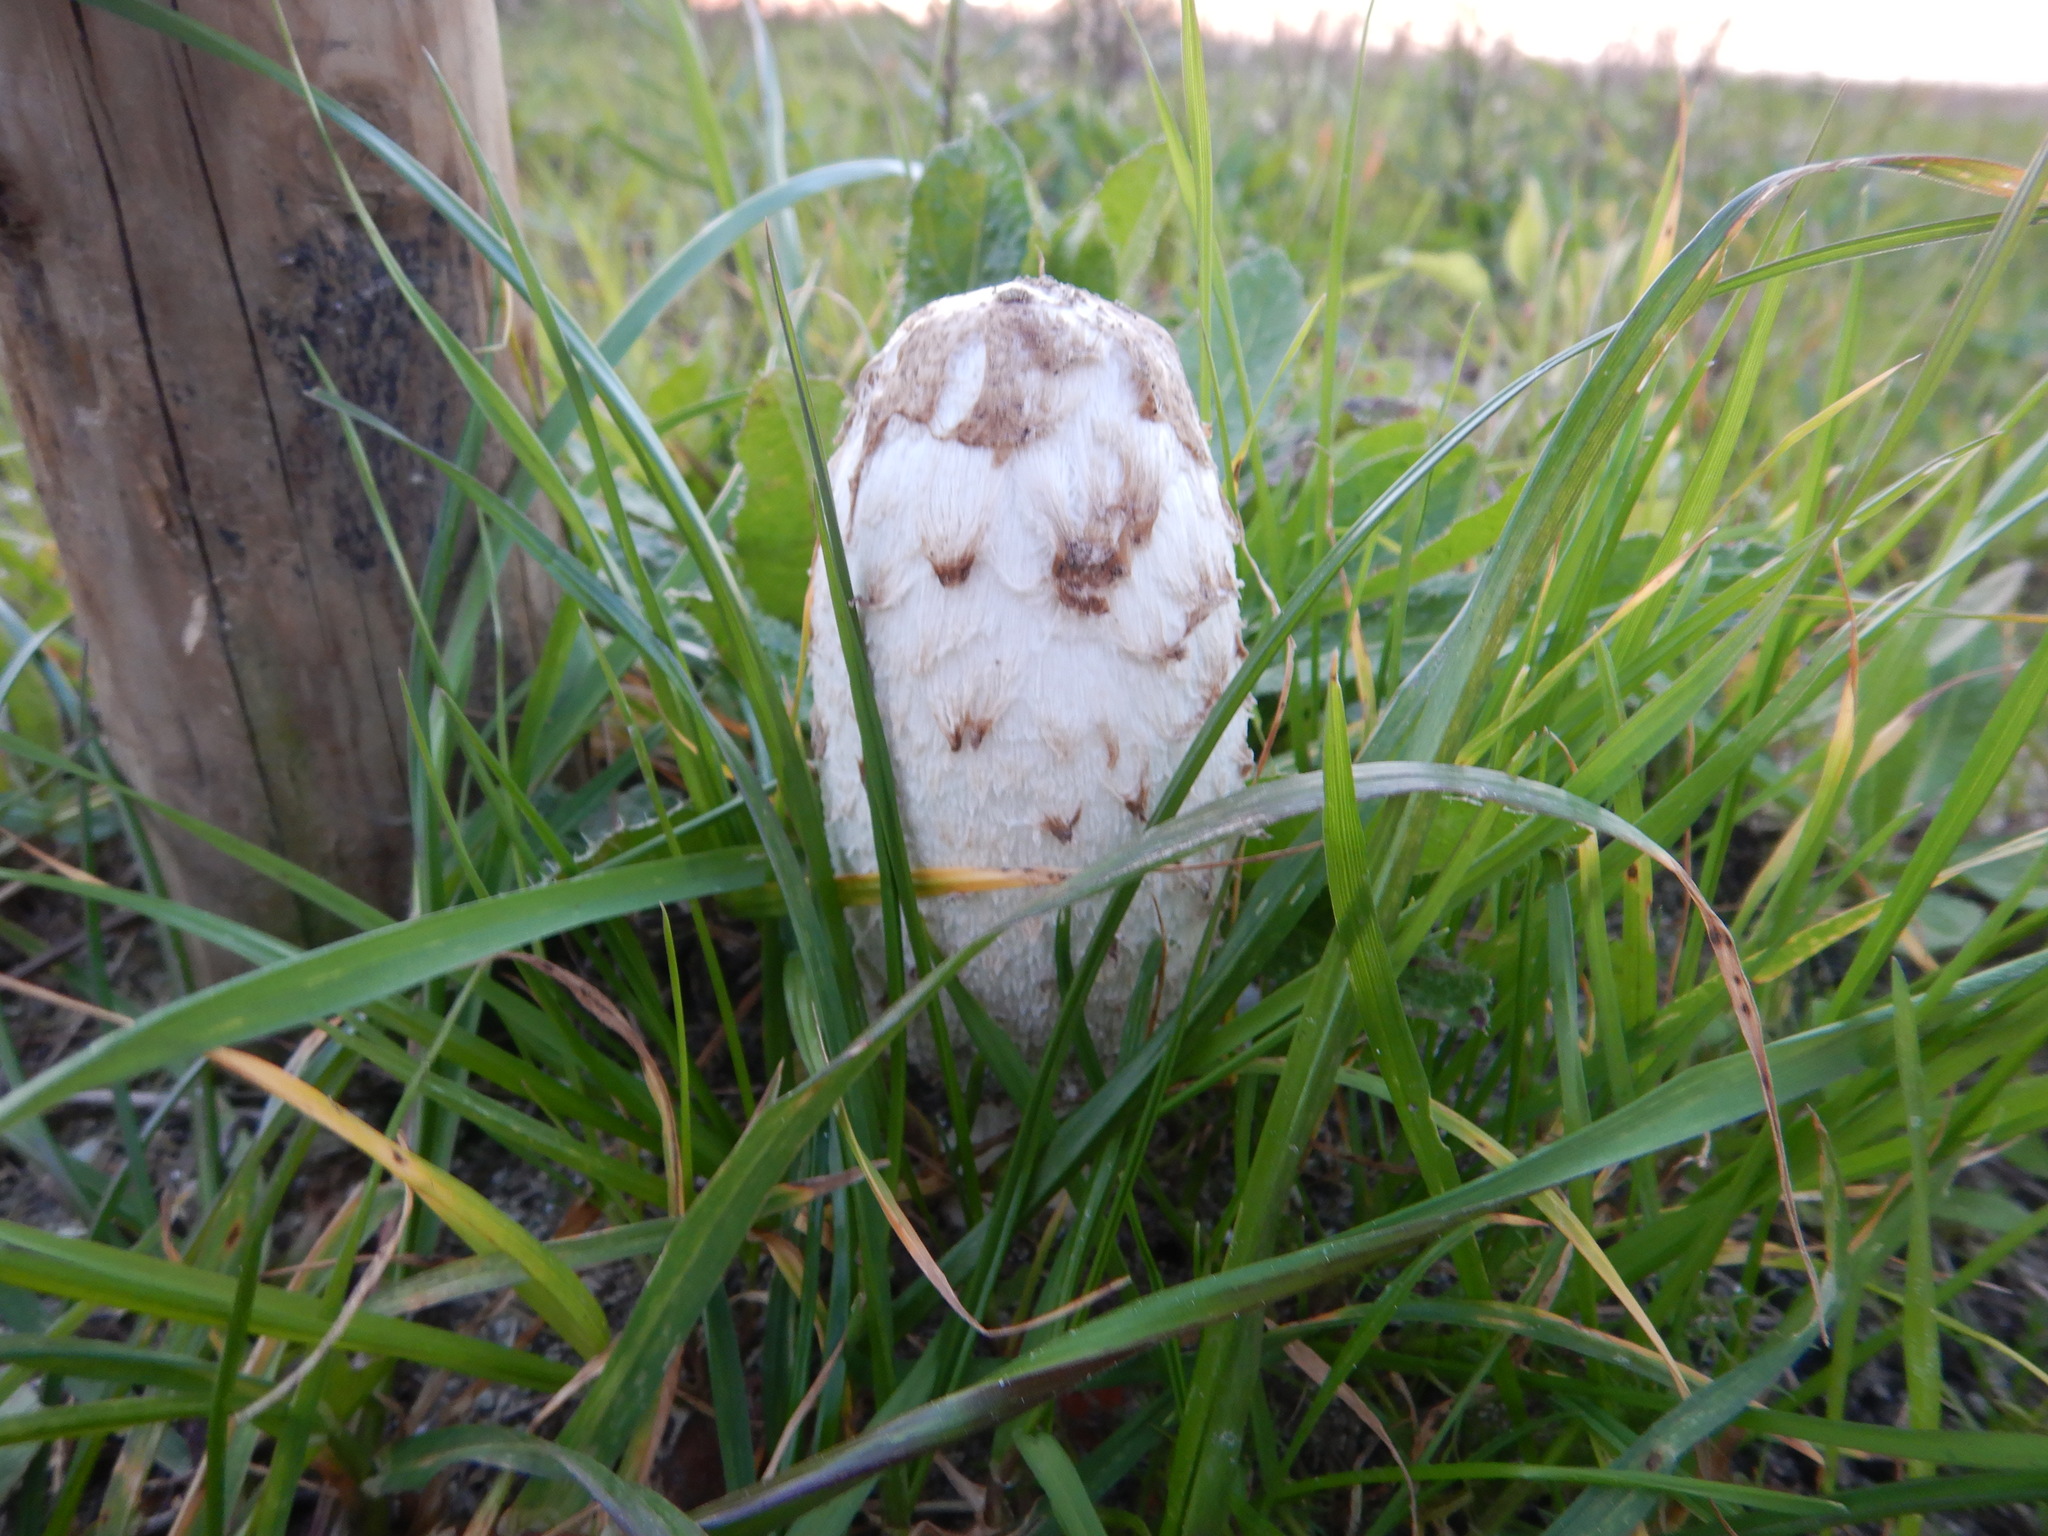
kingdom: Fungi
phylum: Basidiomycota
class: Agaricomycetes
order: Agaricales
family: Agaricaceae
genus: Coprinus
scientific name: Coprinus comatus
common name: Lawyer's wig
